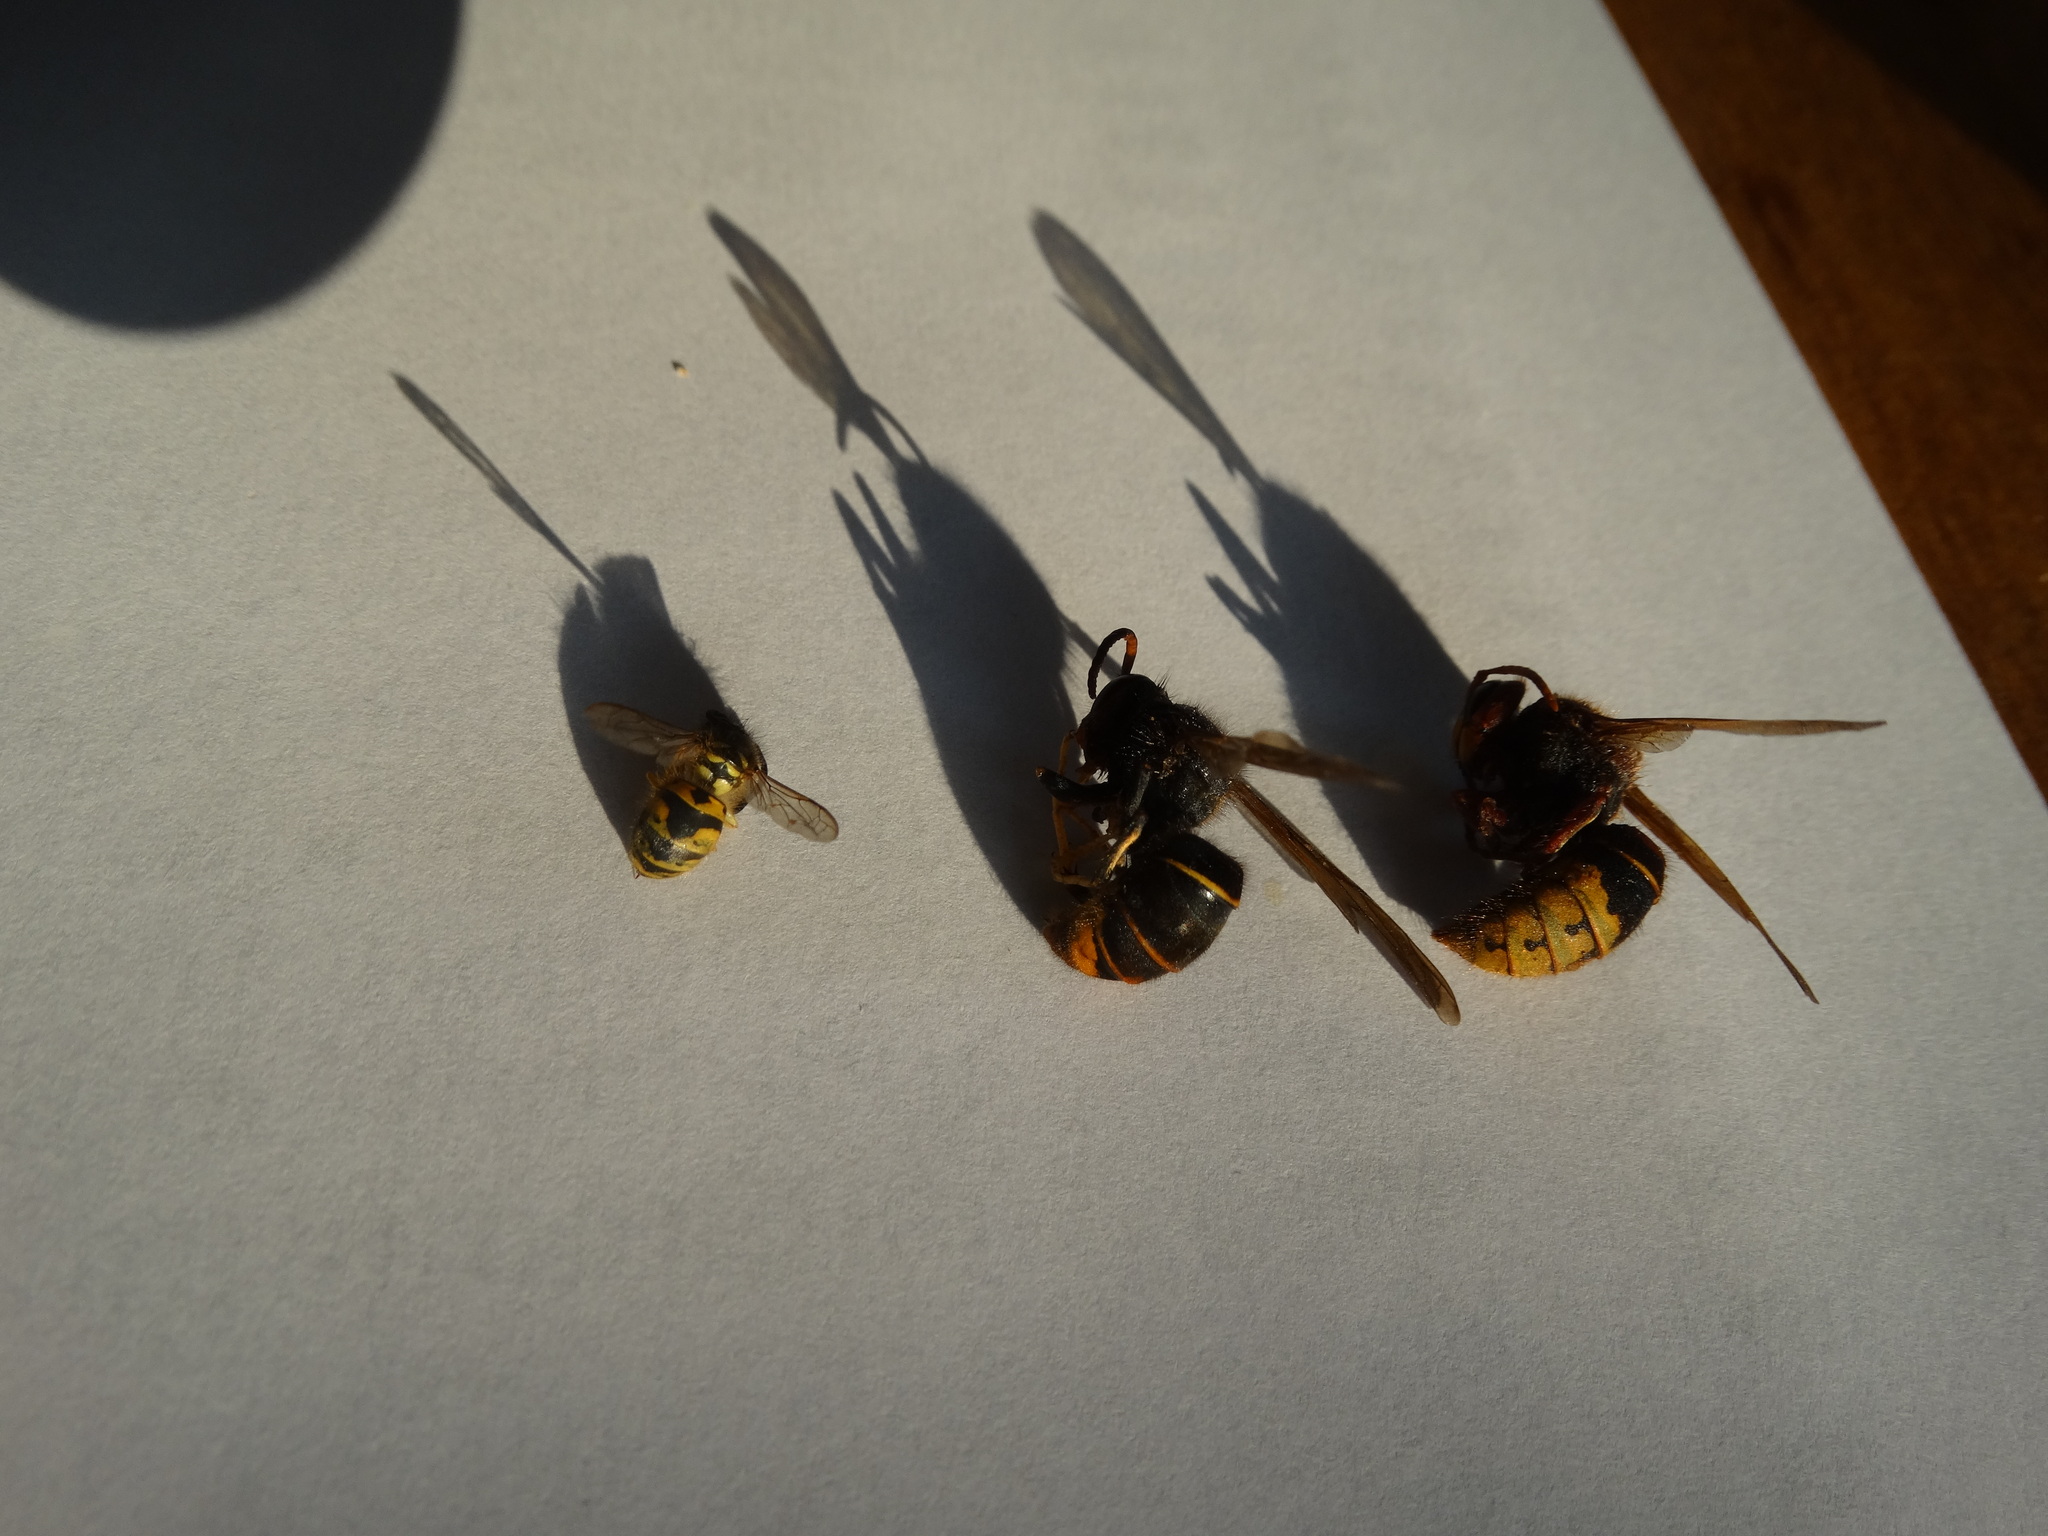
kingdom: Animalia
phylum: Arthropoda
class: Insecta
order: Hymenoptera
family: Vespidae
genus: Vespa
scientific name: Vespa velutina
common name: Asian hornet
